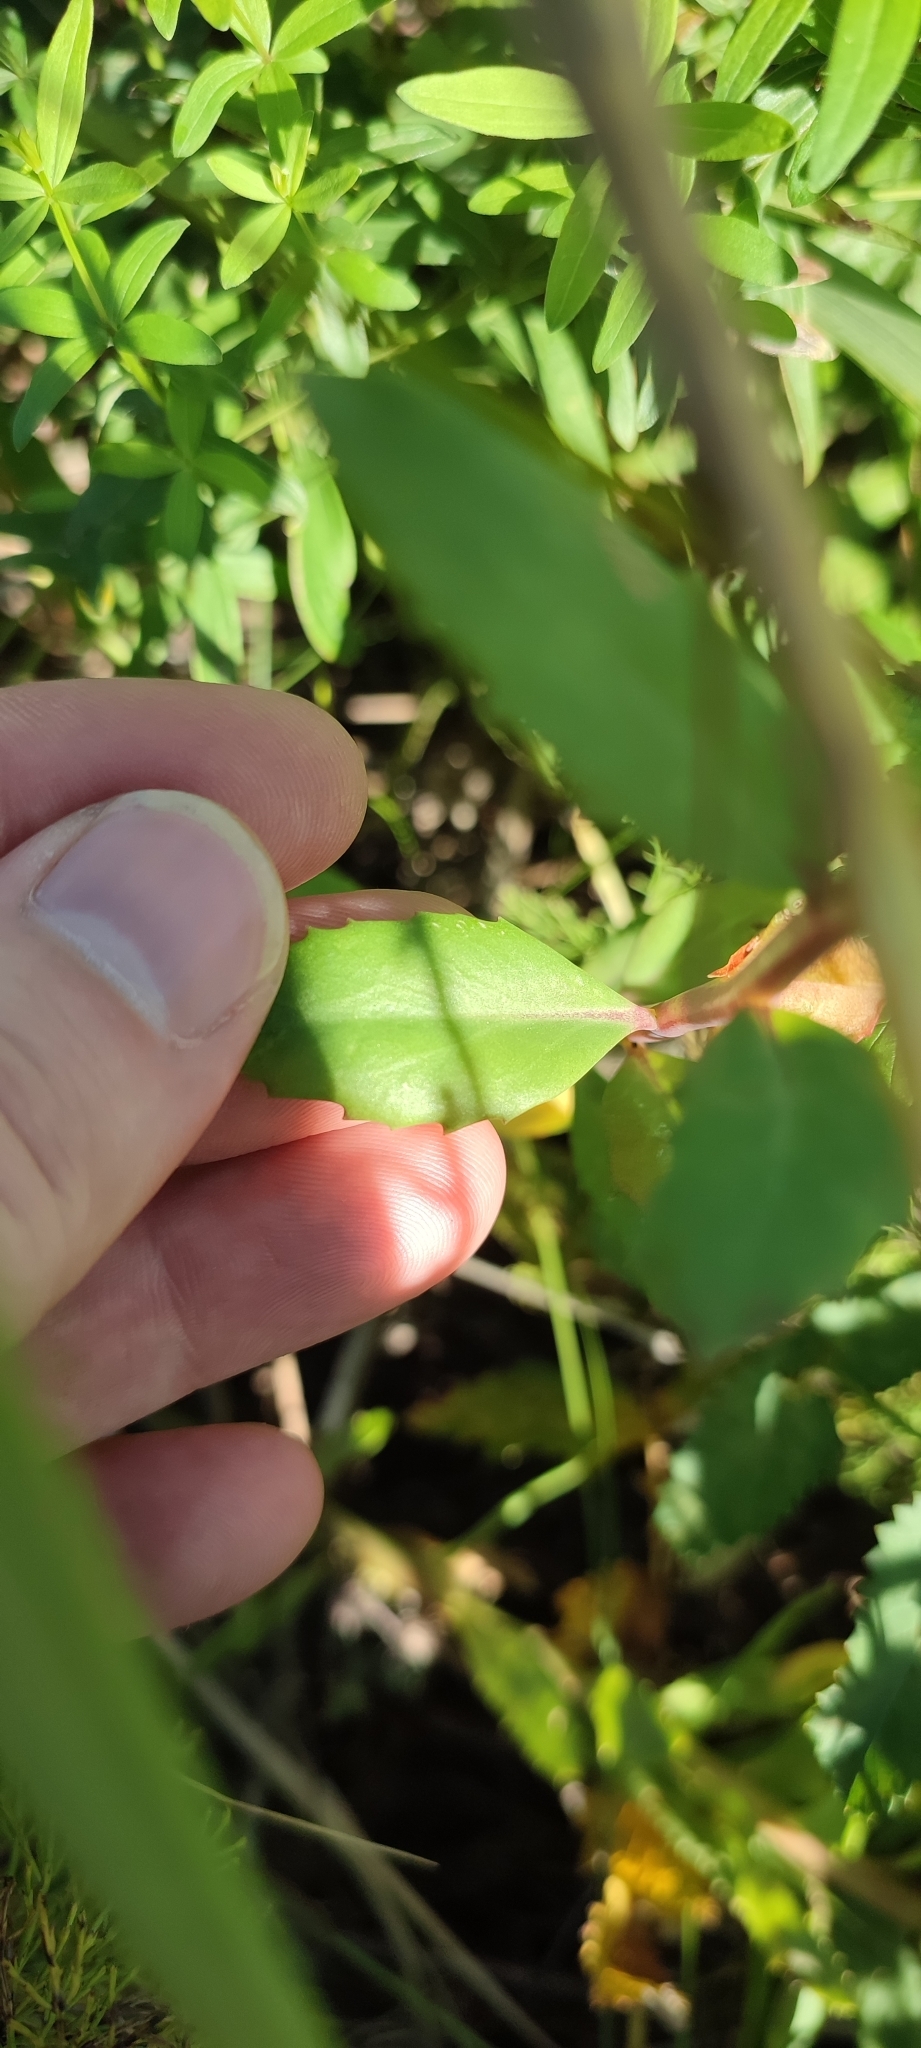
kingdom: Plantae
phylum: Tracheophyta
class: Magnoliopsida
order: Saxifragales
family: Crassulaceae
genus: Hylotelephium
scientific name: Hylotelephium telephium
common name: Live-forever
